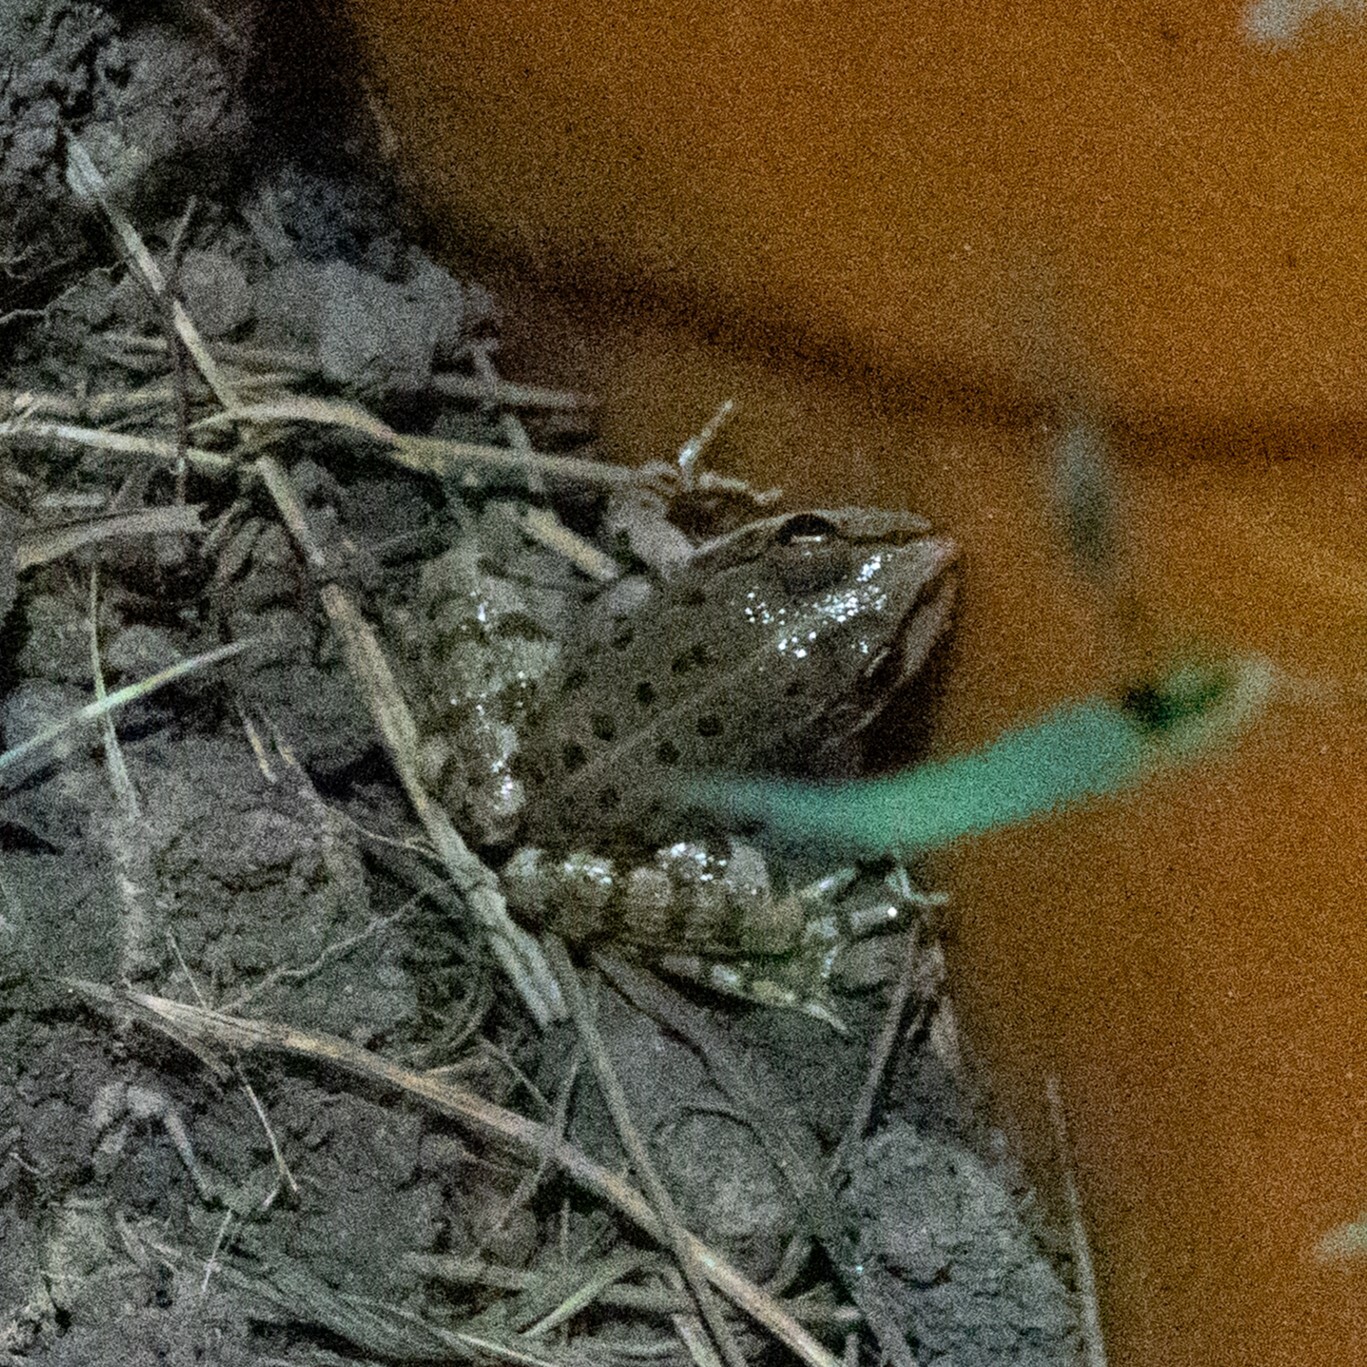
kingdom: Animalia
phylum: Chordata
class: Amphibia
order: Anura
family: Ranidae
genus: Pelophylax
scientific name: Pelophylax ridibundus
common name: Marsh frog
